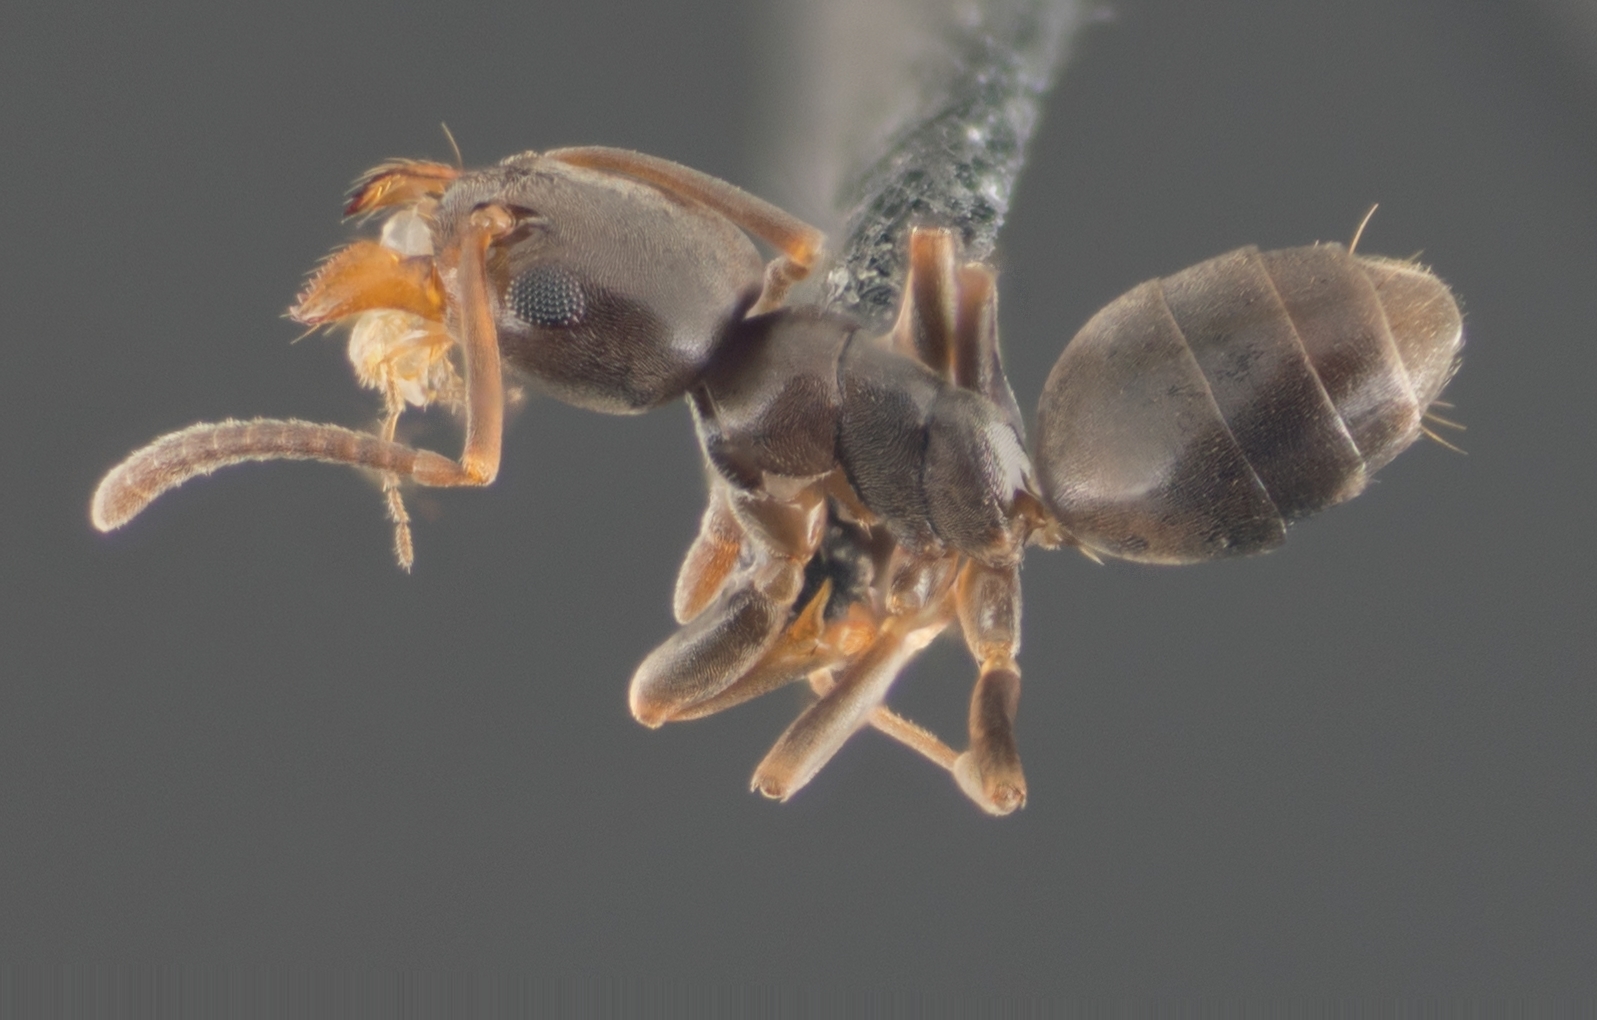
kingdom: Animalia
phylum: Arthropoda
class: Insecta
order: Hymenoptera
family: Formicidae
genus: Tapinoma
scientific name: Tapinoma sessile
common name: Odorous house ant
